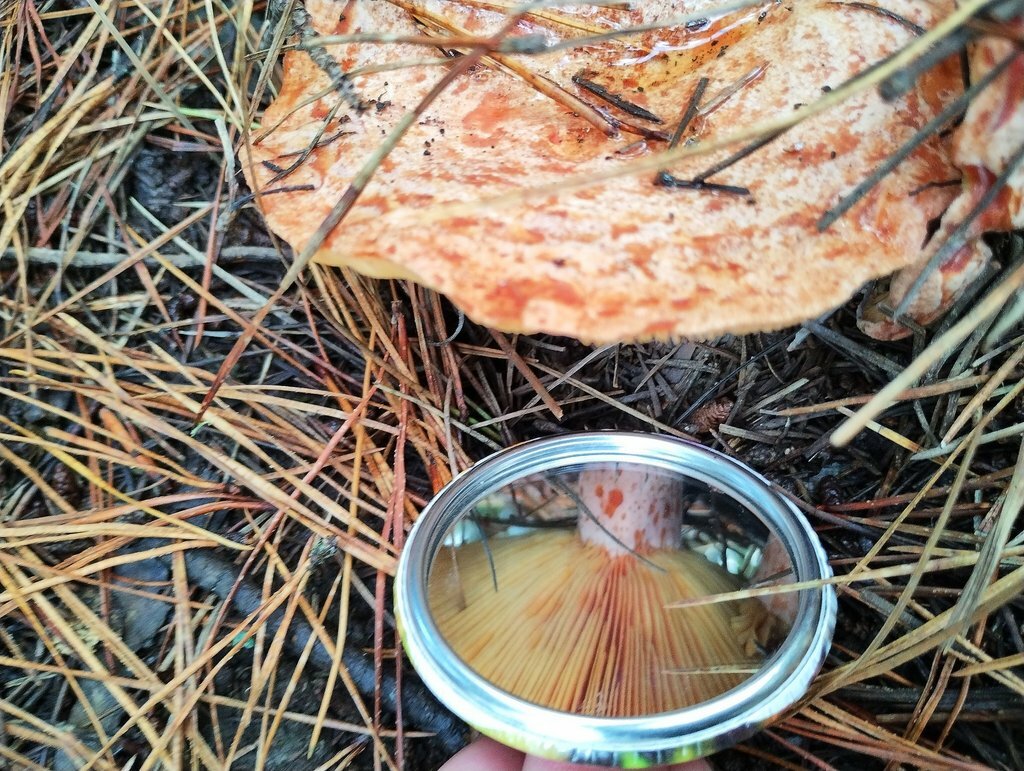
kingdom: Fungi
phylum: Basidiomycota
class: Agaricomycetes
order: Russulales
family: Russulaceae
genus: Lactarius
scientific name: Lactarius deliciosus
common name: Saffron milk-cap
